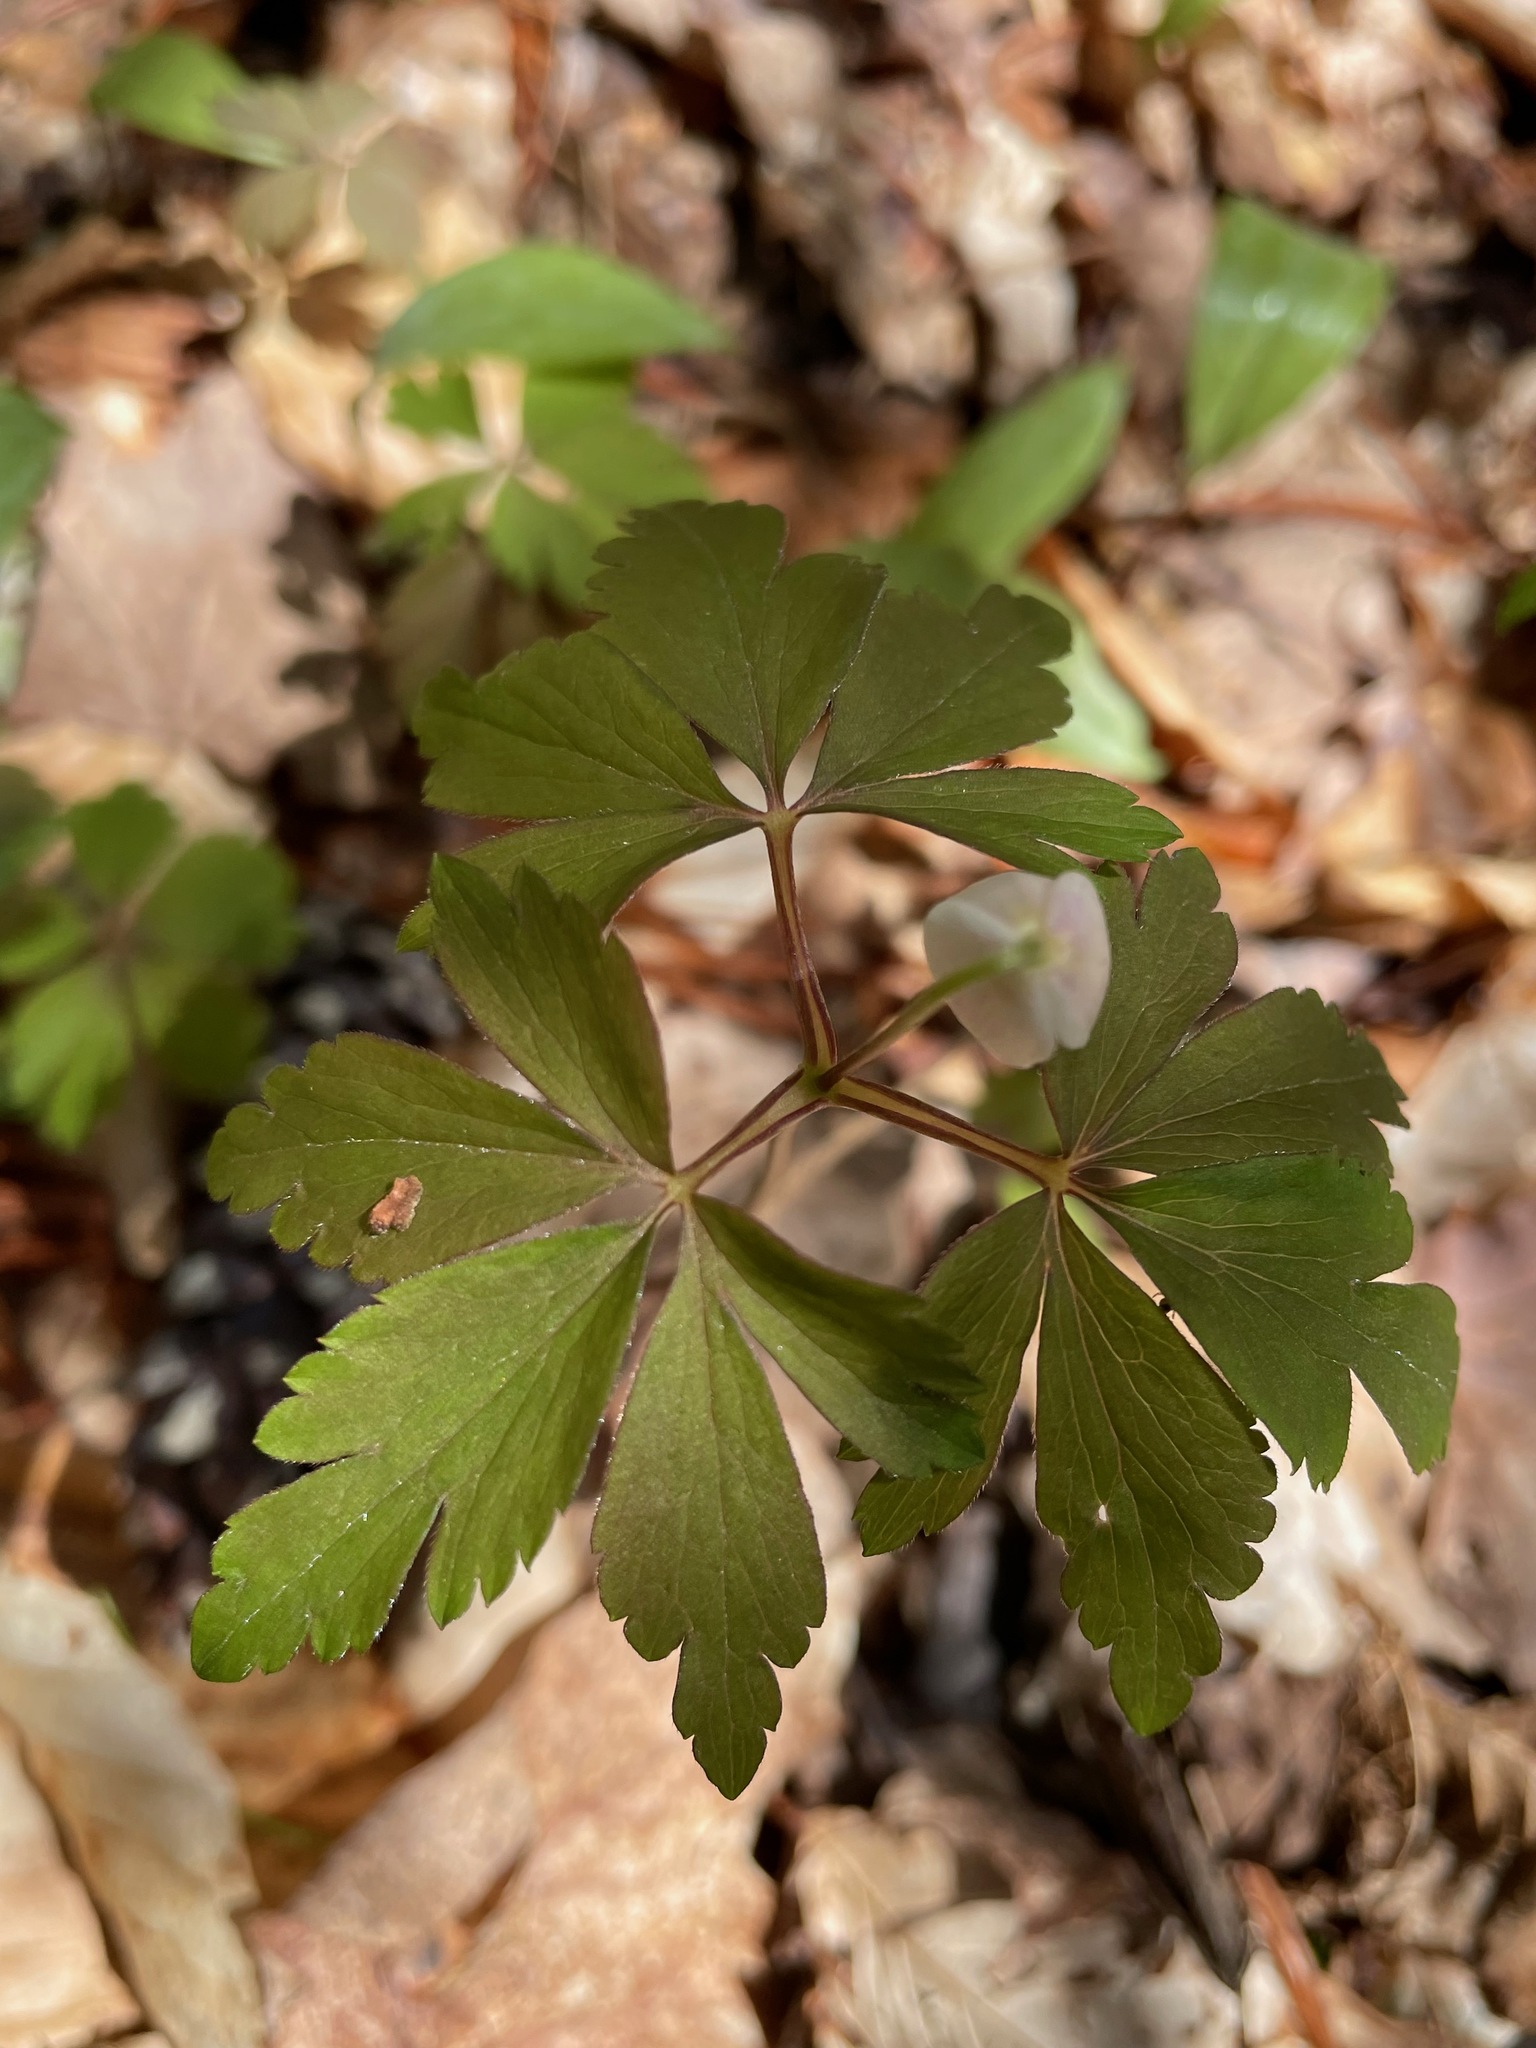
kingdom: Plantae
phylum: Tracheophyta
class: Magnoliopsida
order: Ranunculales
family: Ranunculaceae
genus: Anemone
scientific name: Anemone quinquefolia
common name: Wood anemone
